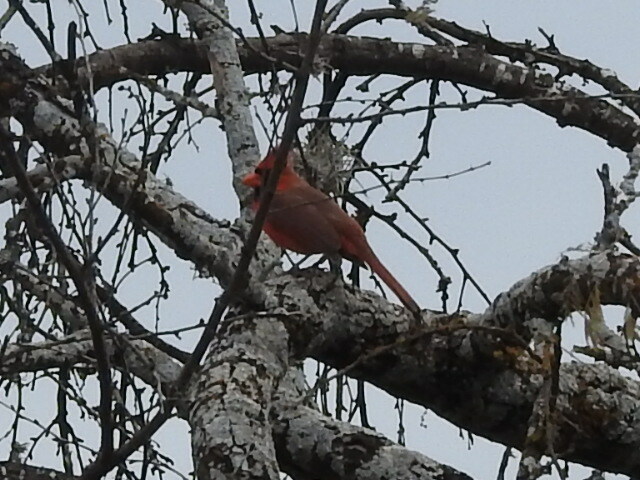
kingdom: Animalia
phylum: Chordata
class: Aves
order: Passeriformes
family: Cardinalidae
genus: Cardinalis
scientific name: Cardinalis cardinalis
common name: Northern cardinal
